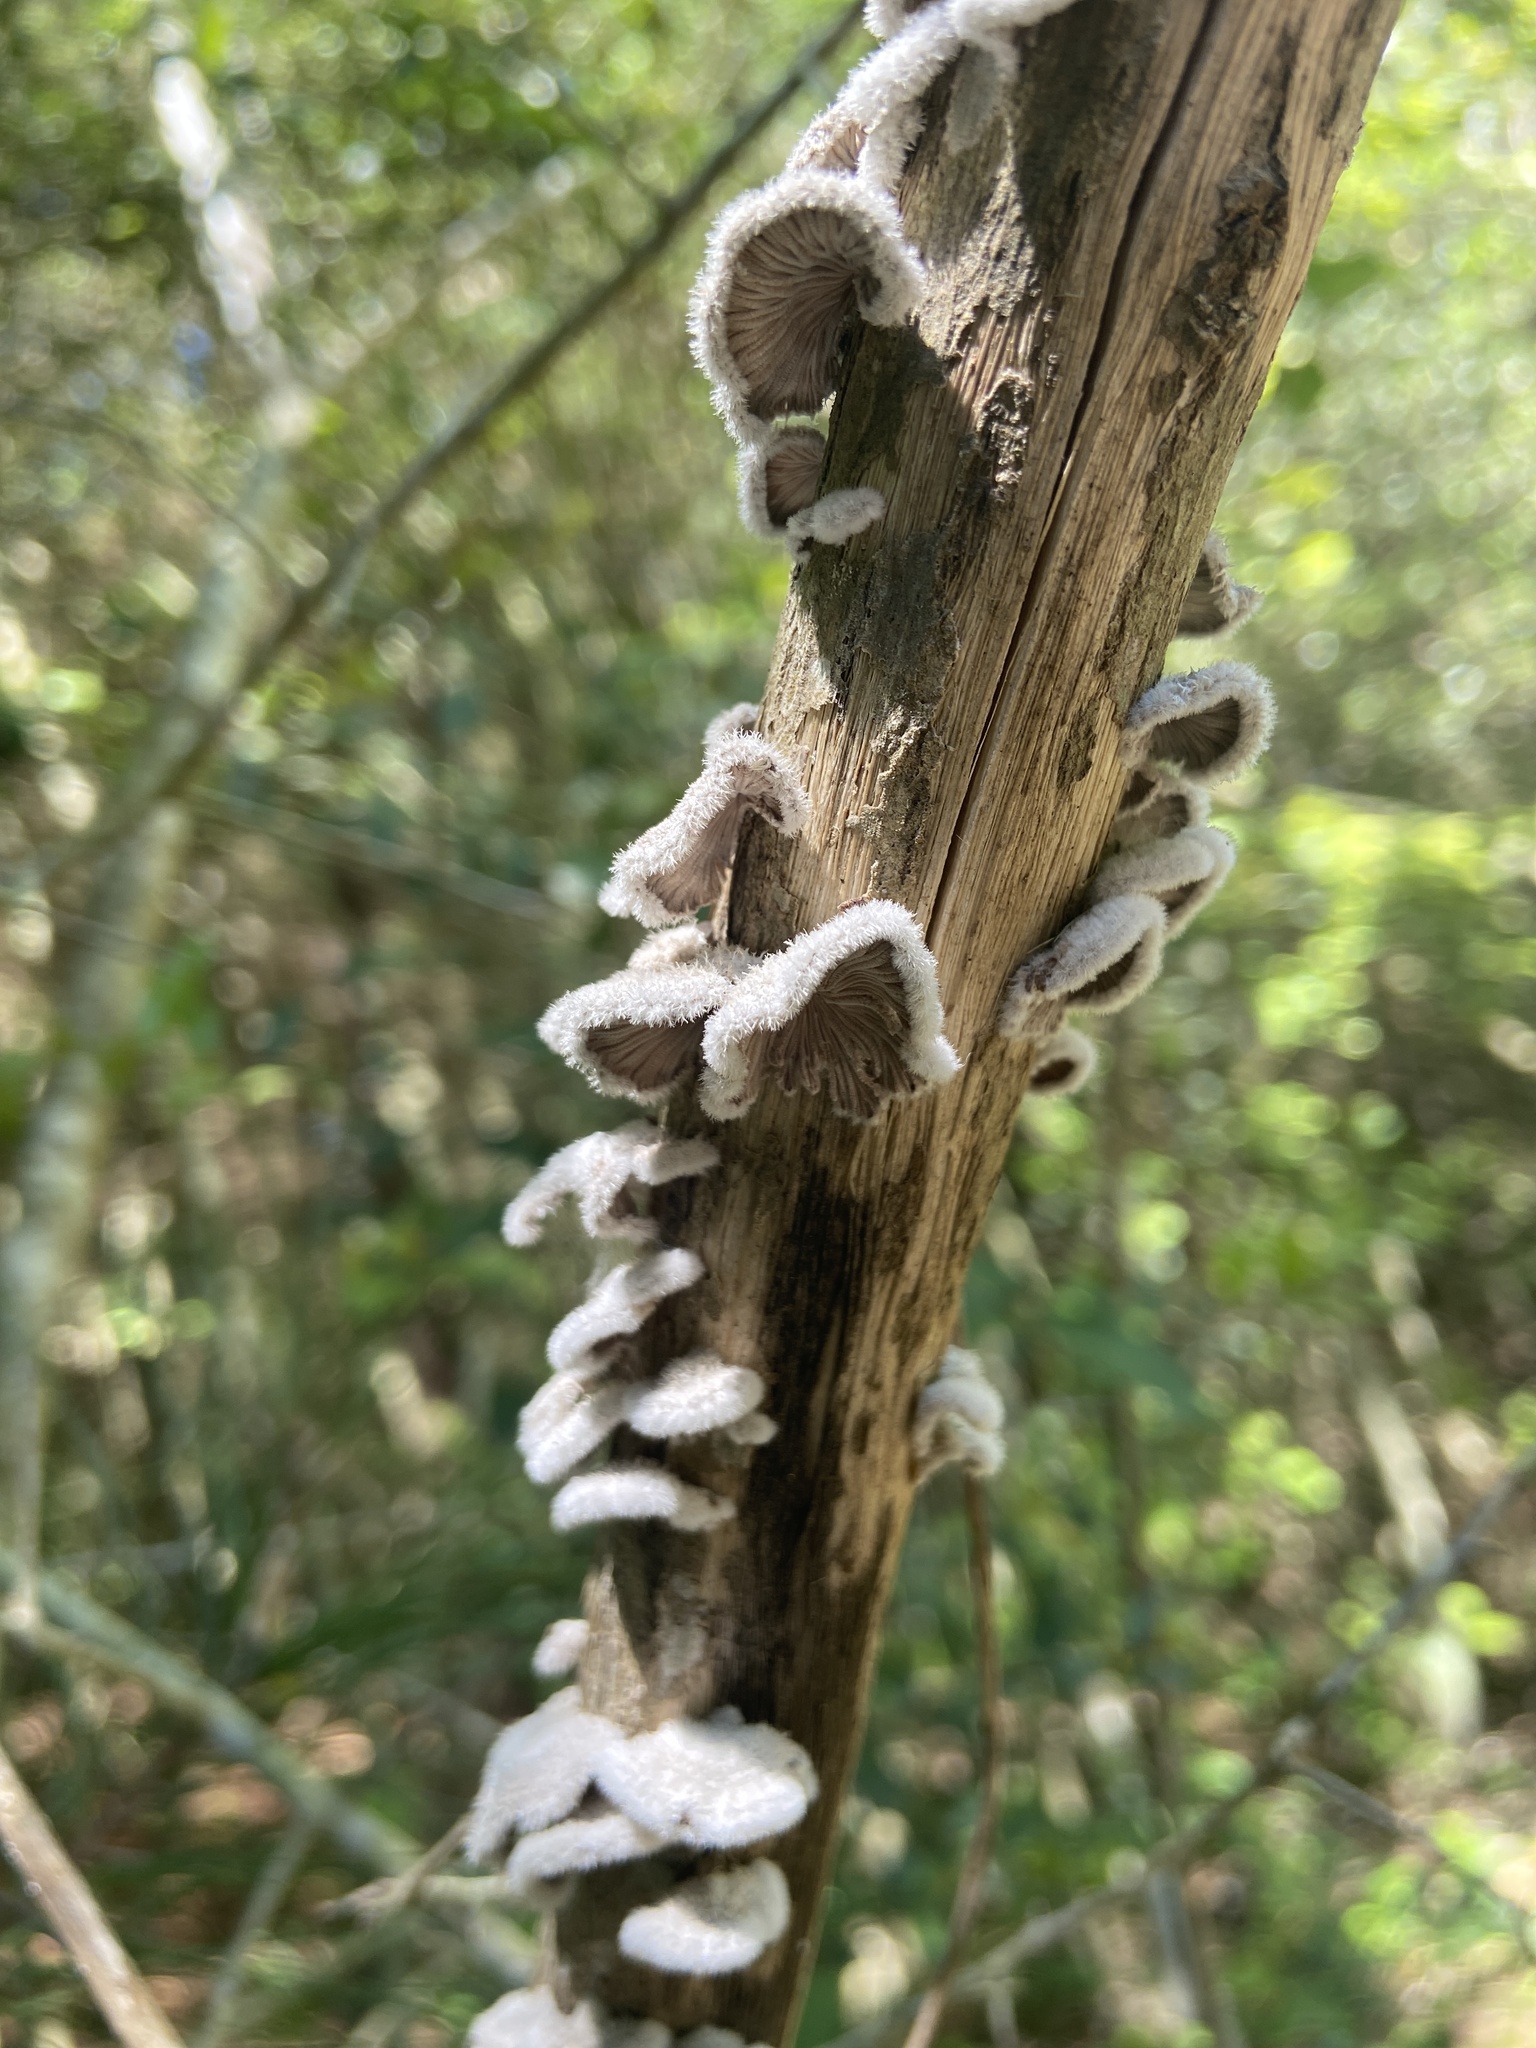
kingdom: Fungi
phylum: Basidiomycota
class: Agaricomycetes
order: Agaricales
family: Schizophyllaceae
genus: Schizophyllum
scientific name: Schizophyllum commune
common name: Common porecrust
